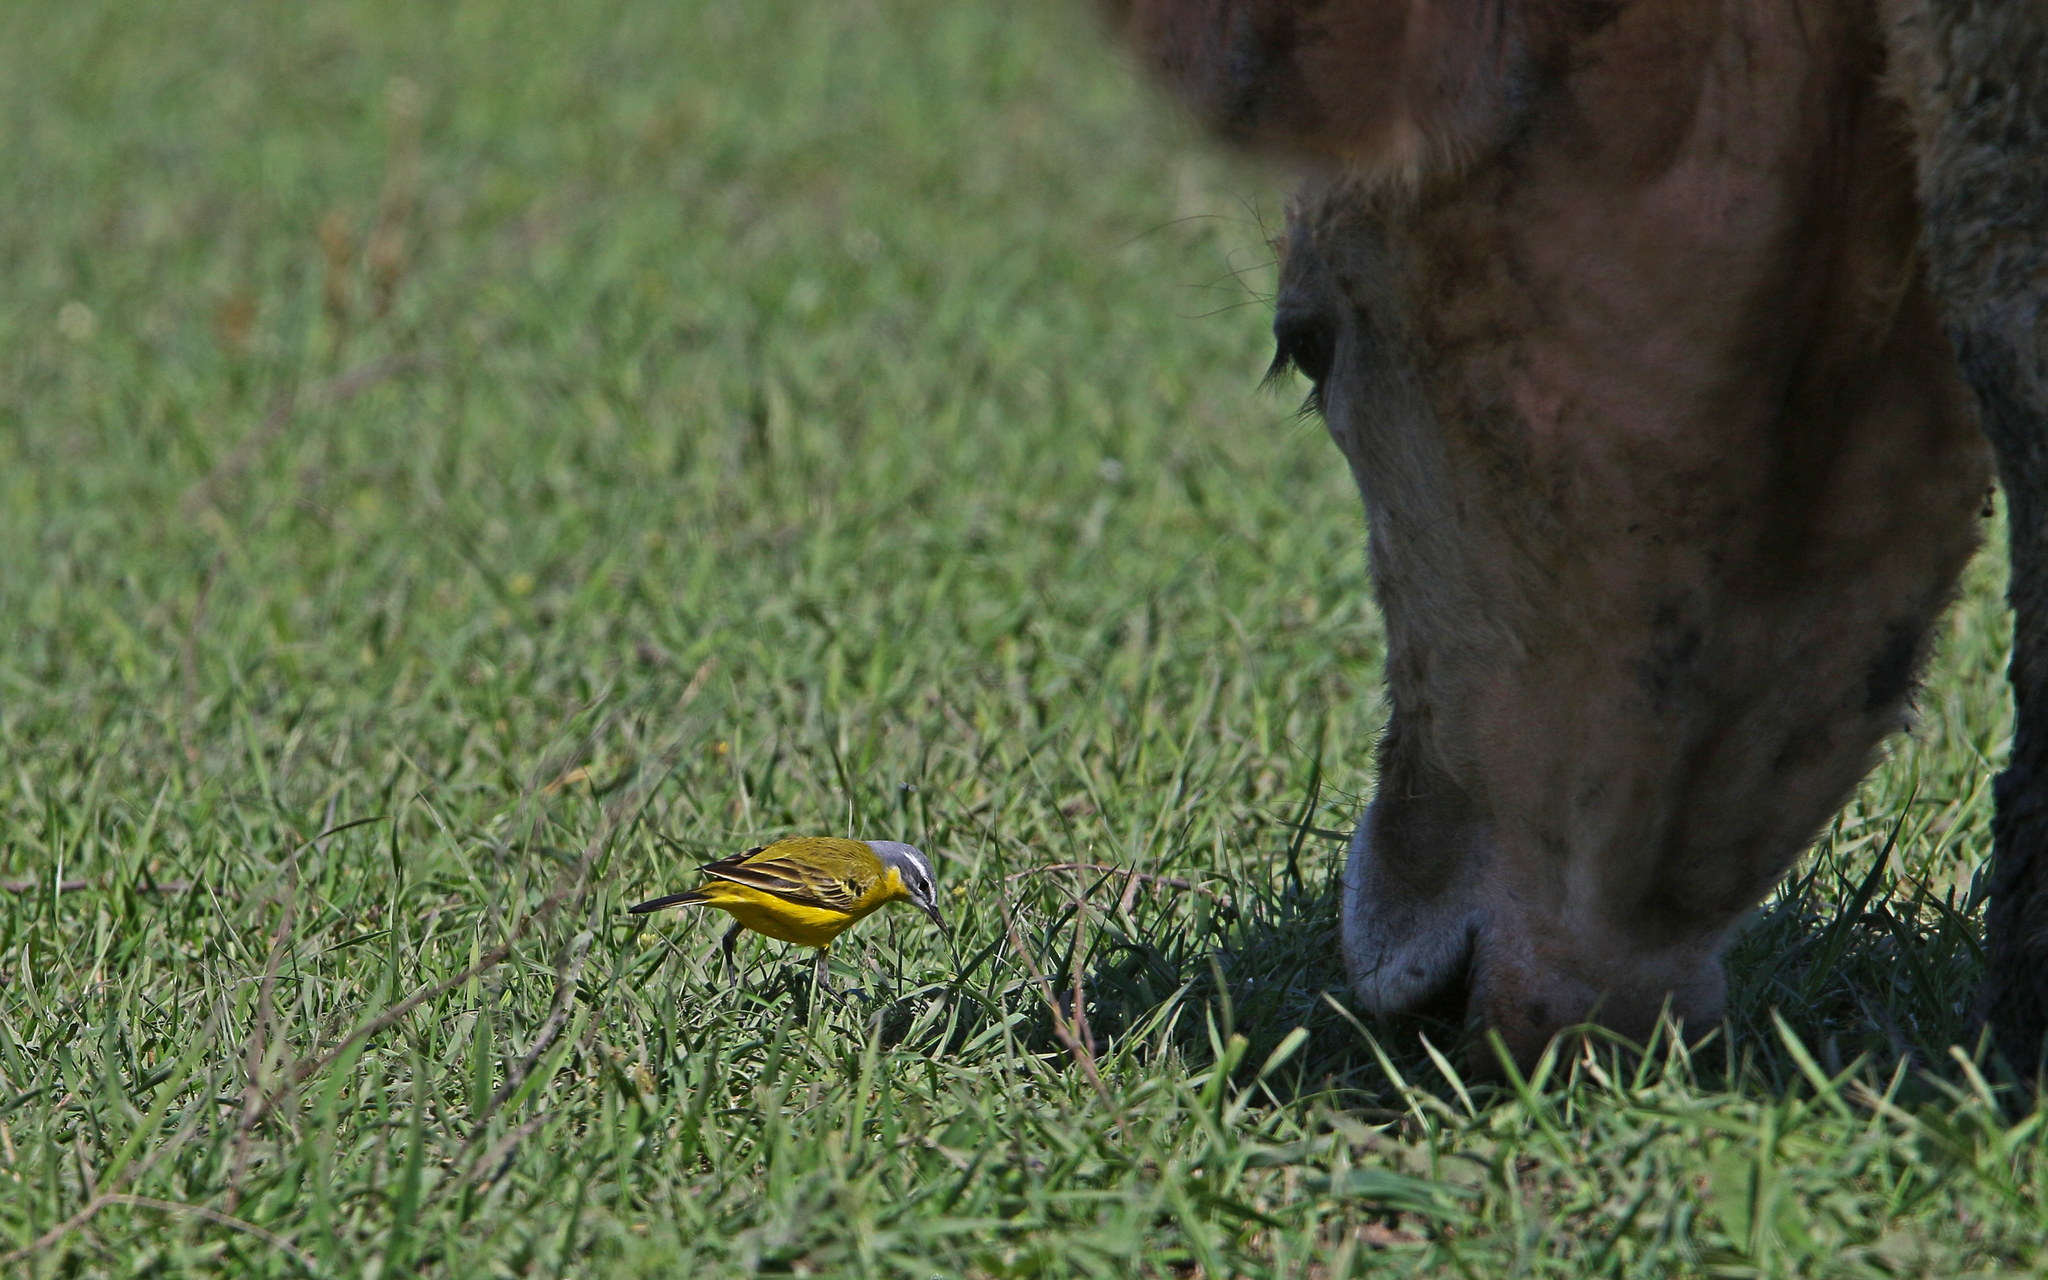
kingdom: Animalia
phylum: Chordata
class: Aves
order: Passeriformes
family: Motacillidae
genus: Motacilla
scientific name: Motacilla flava
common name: Western yellow wagtail
